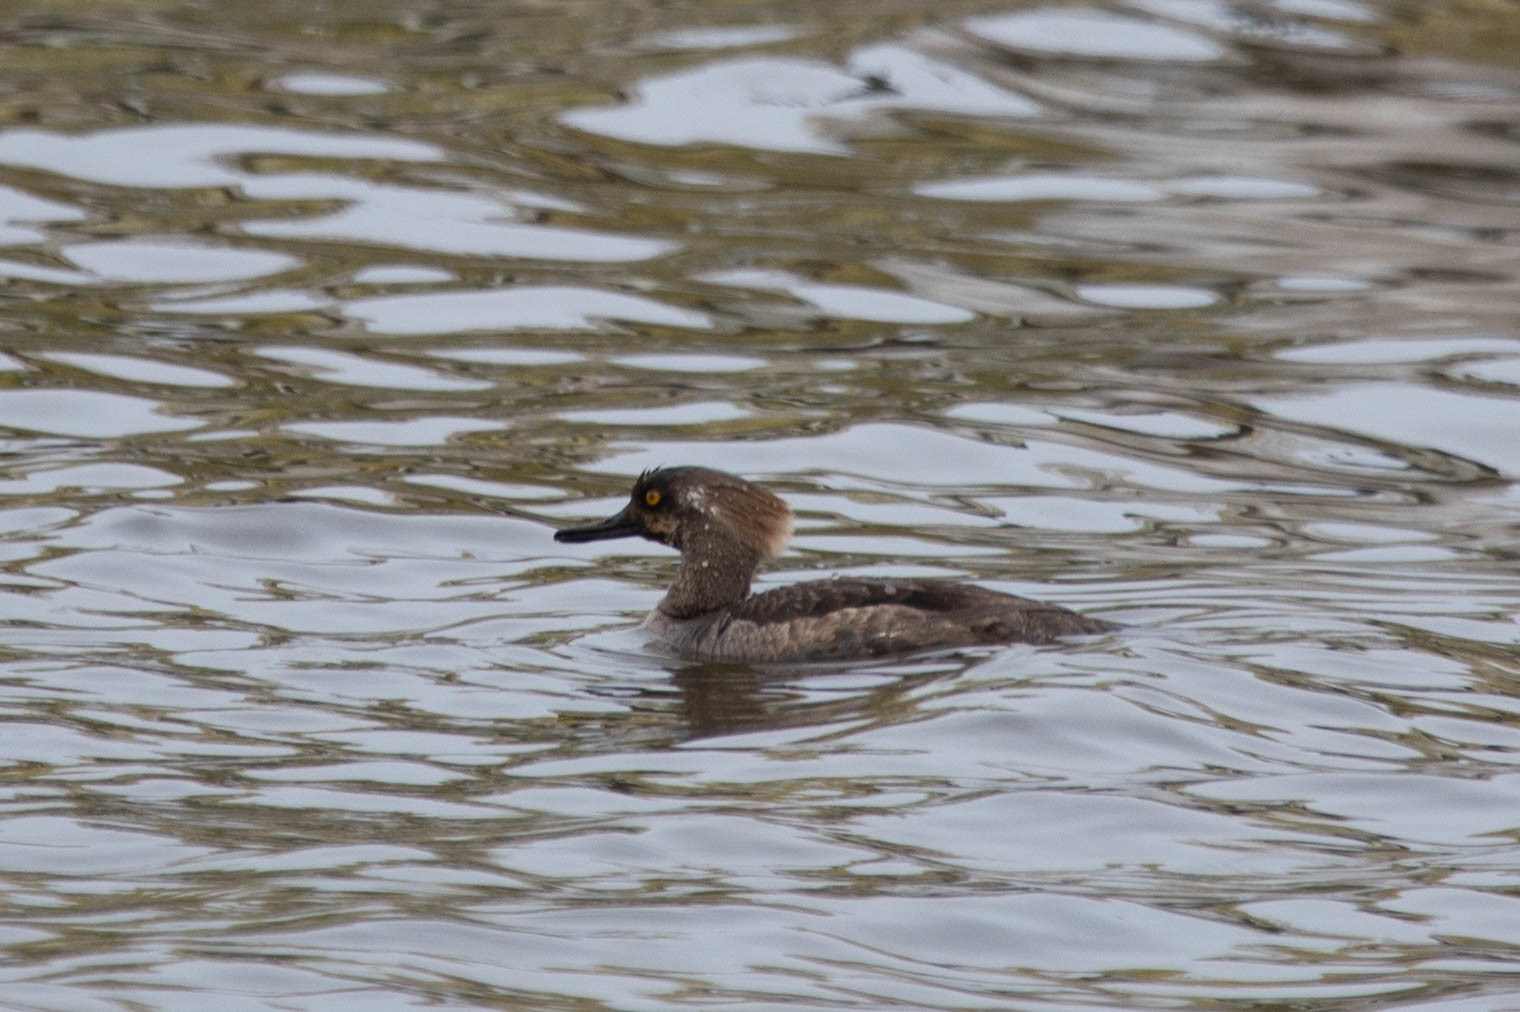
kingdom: Animalia
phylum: Chordata
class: Aves
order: Anseriformes
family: Anatidae
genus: Lophodytes
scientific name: Lophodytes cucullatus
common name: Hooded merganser
